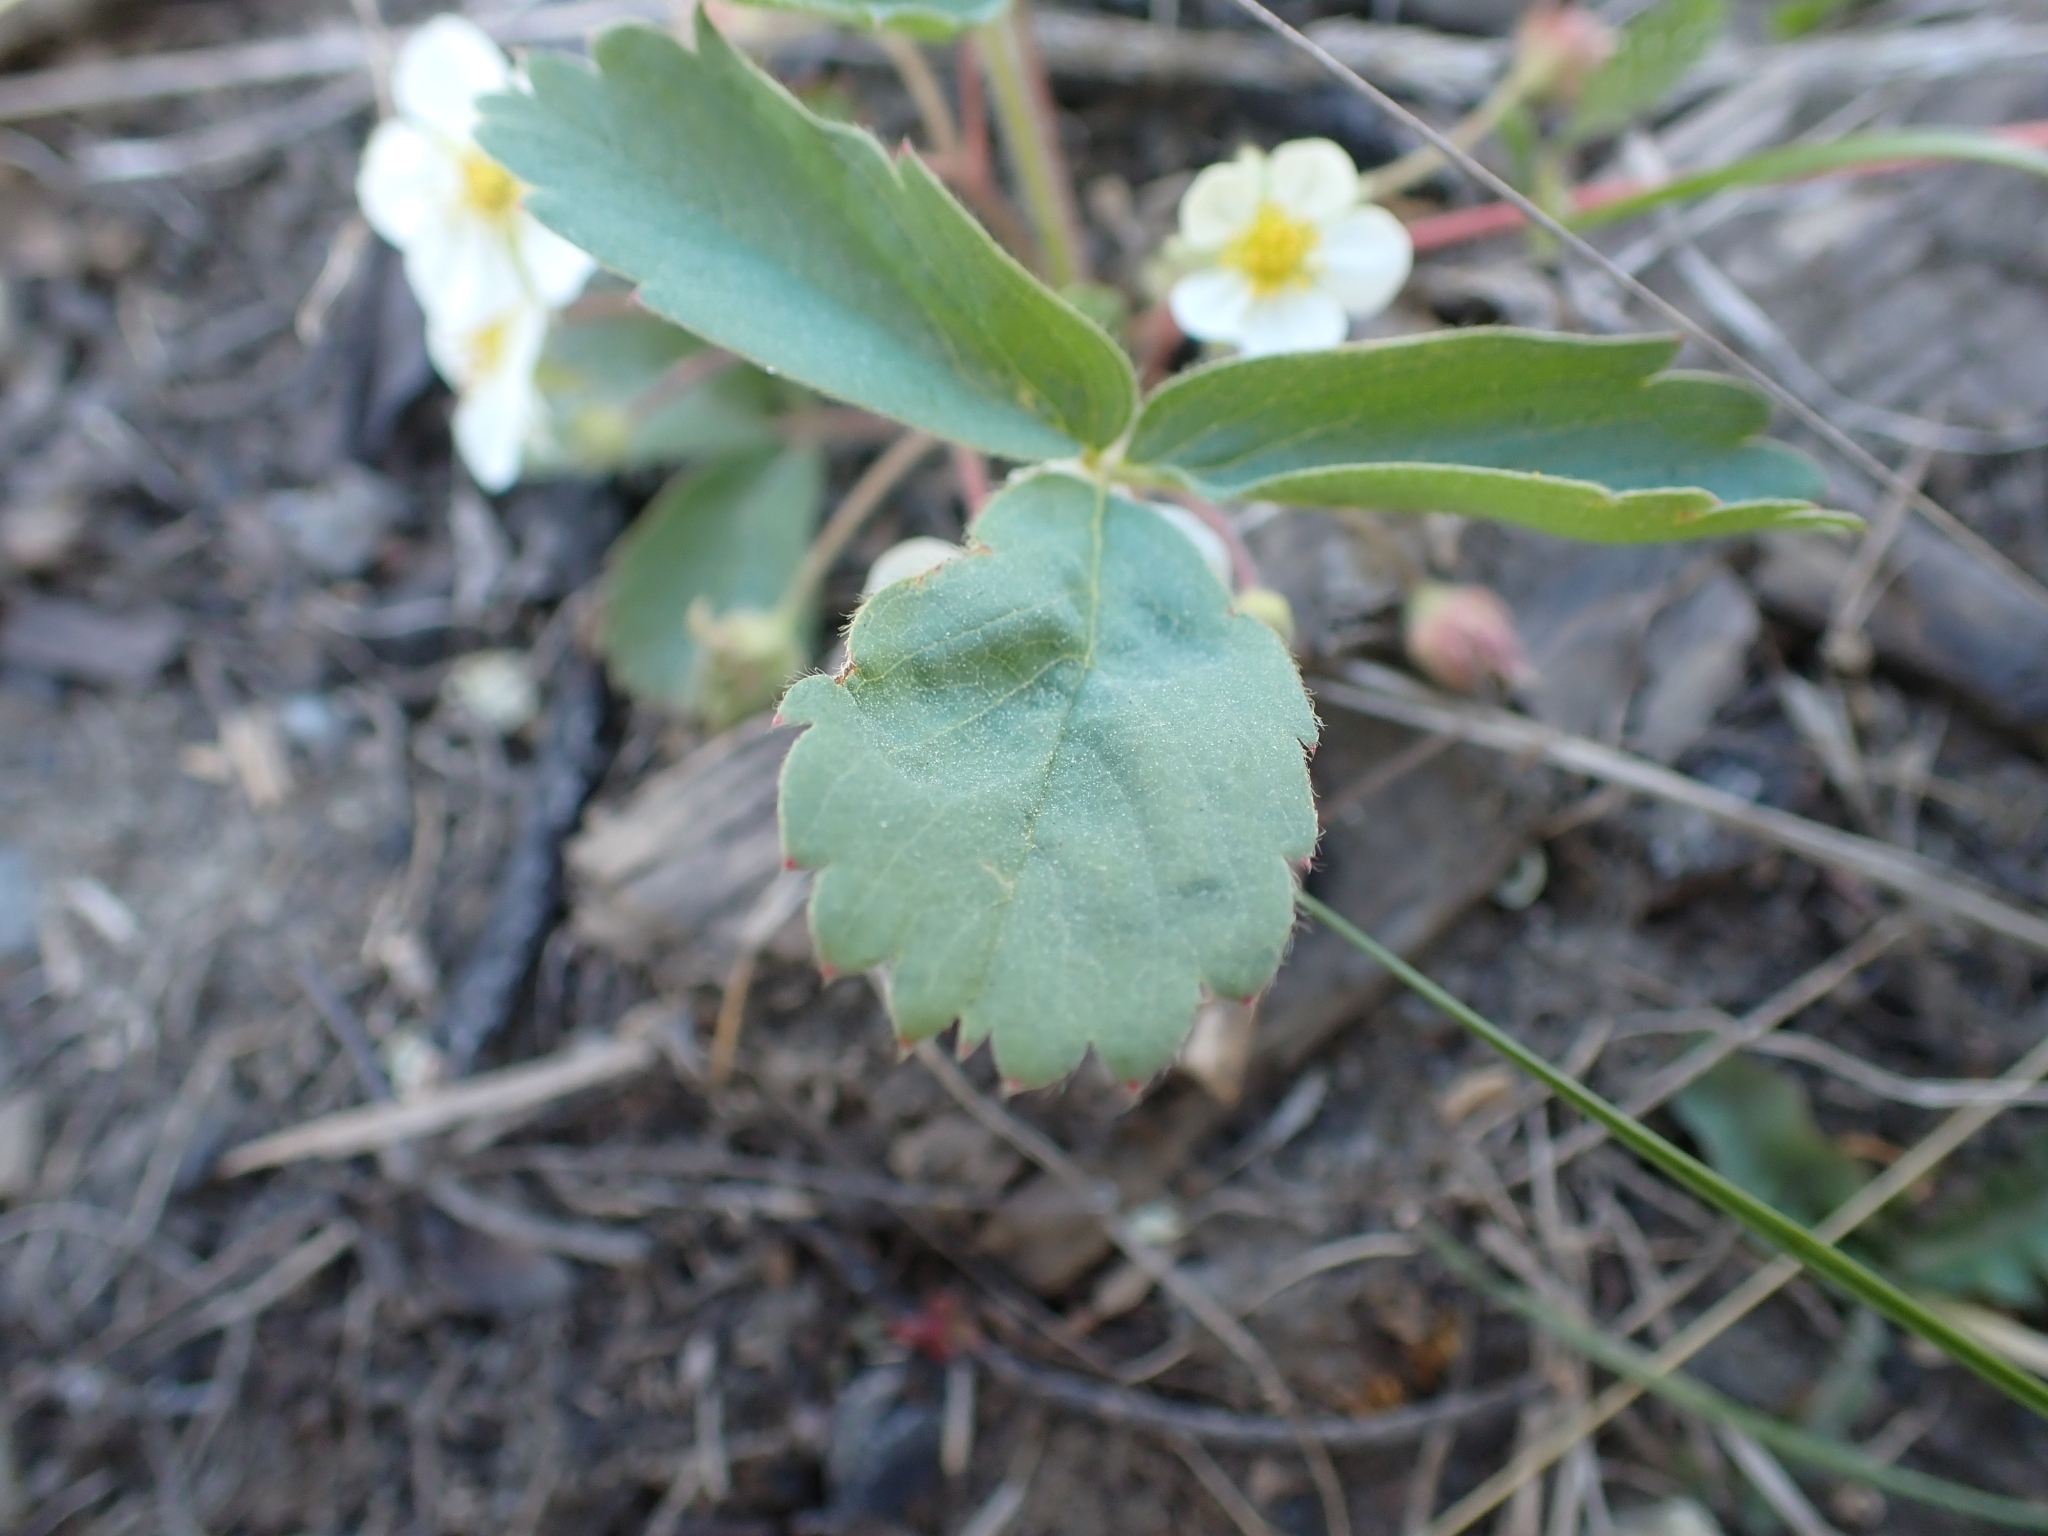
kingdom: Plantae
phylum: Tracheophyta
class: Magnoliopsida
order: Rosales
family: Rosaceae
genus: Fragaria
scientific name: Fragaria virginiana
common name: Thickleaved wild strawberry
